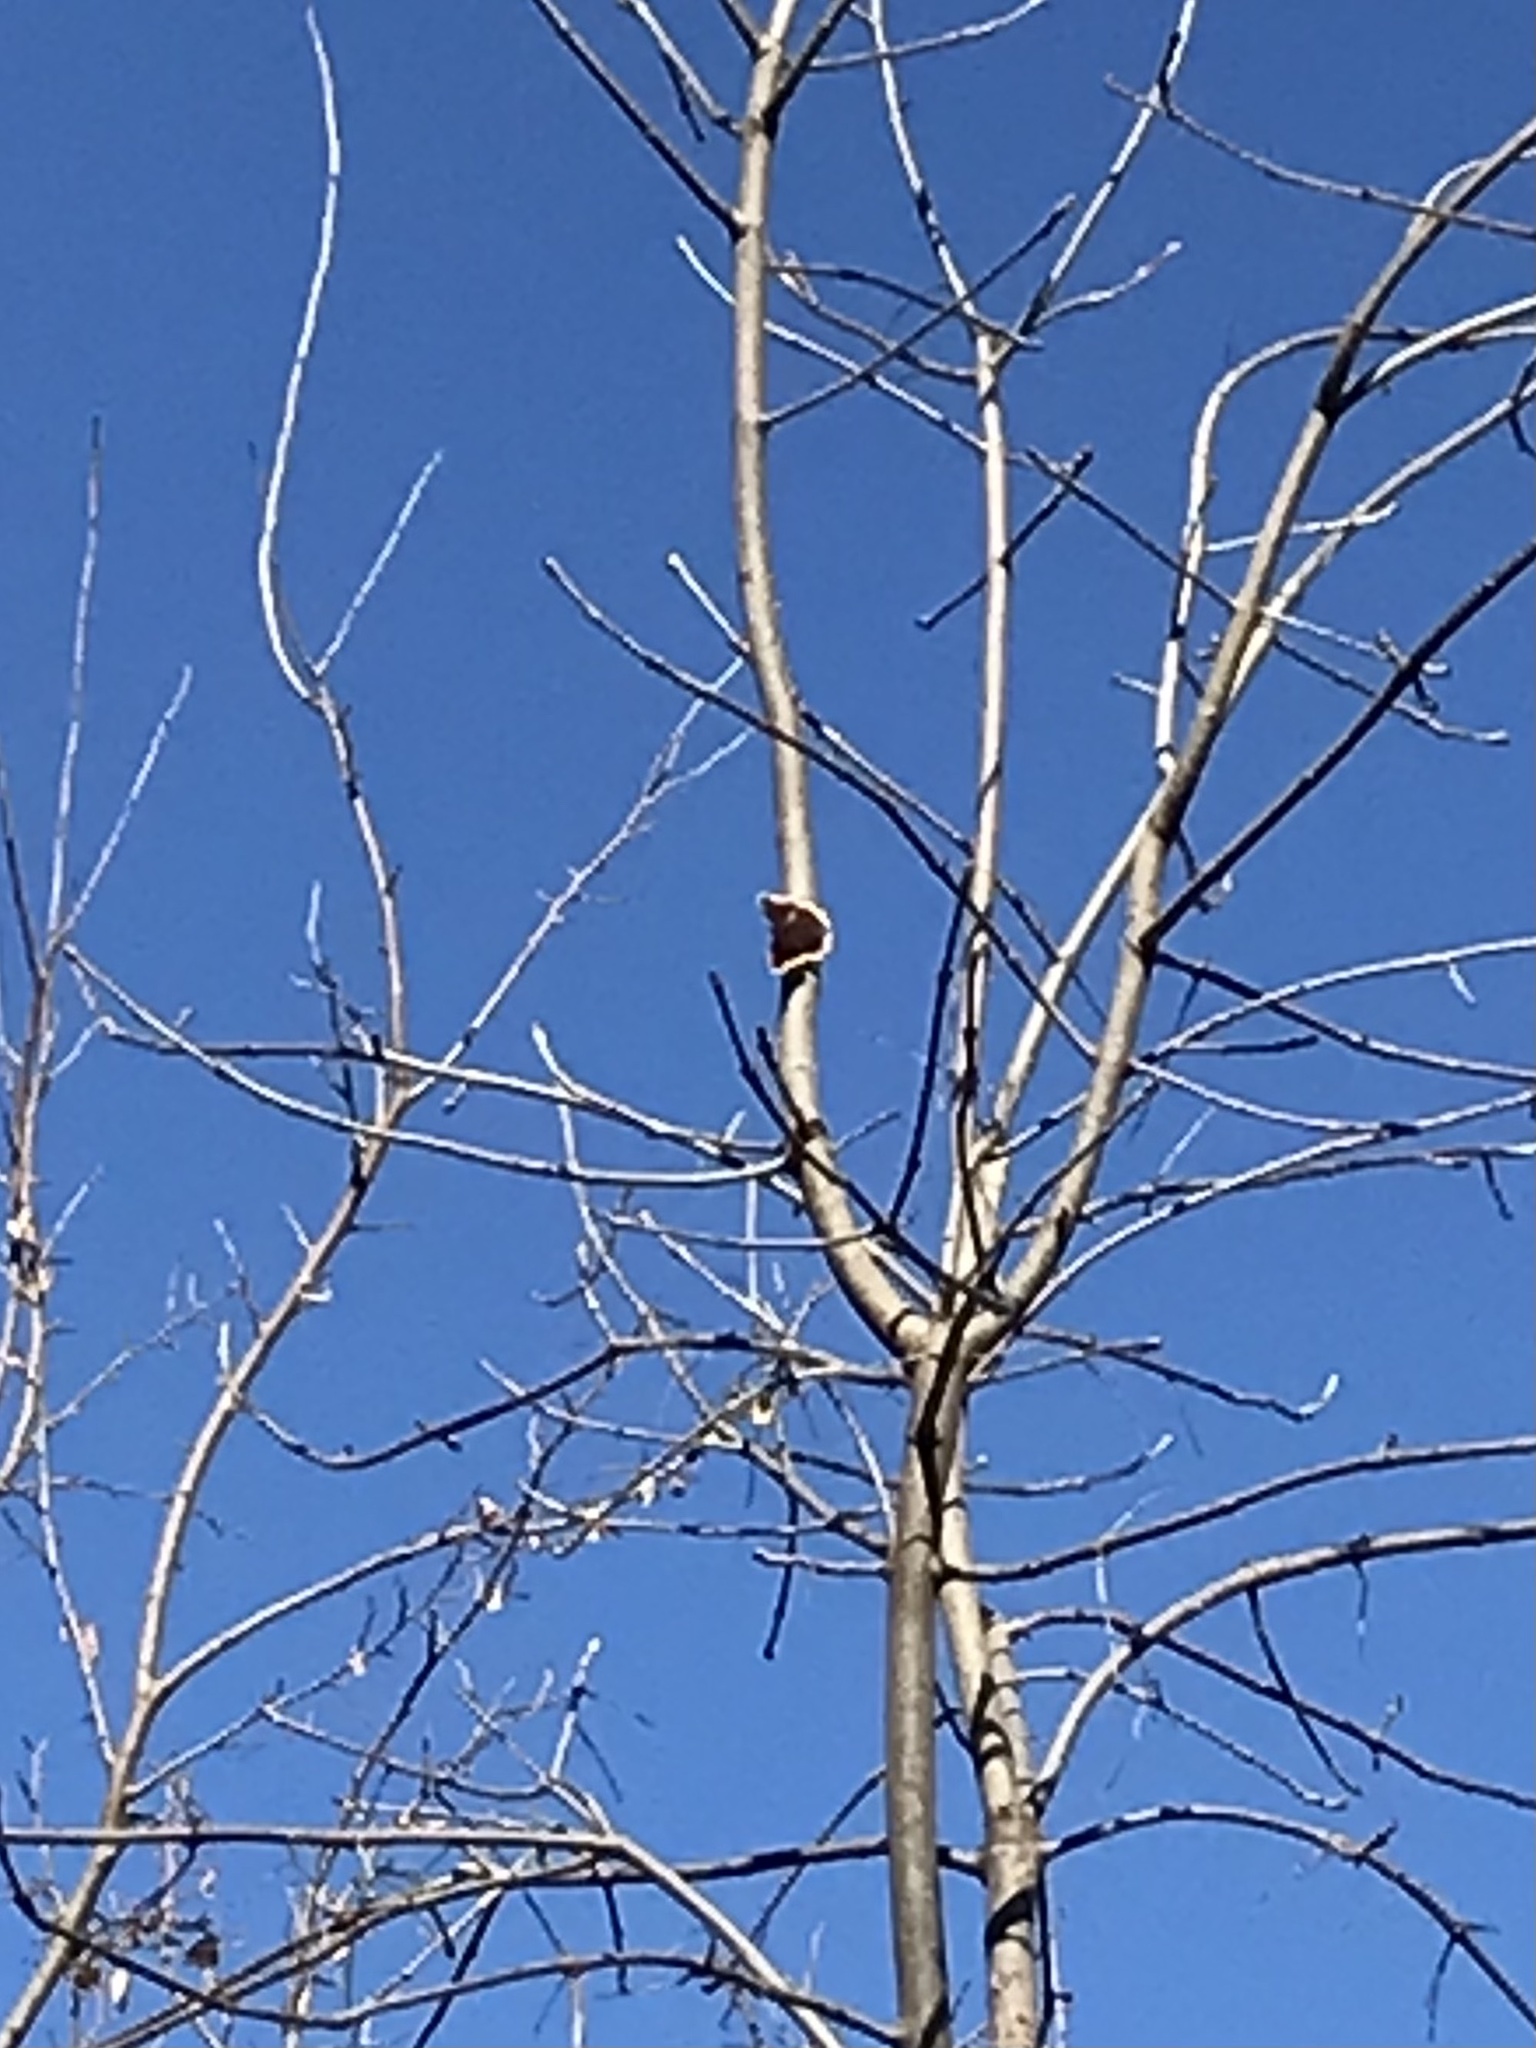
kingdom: Animalia
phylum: Arthropoda
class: Insecta
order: Lepidoptera
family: Nymphalidae
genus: Nymphalis
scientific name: Nymphalis antiopa
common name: Camberwell beauty
